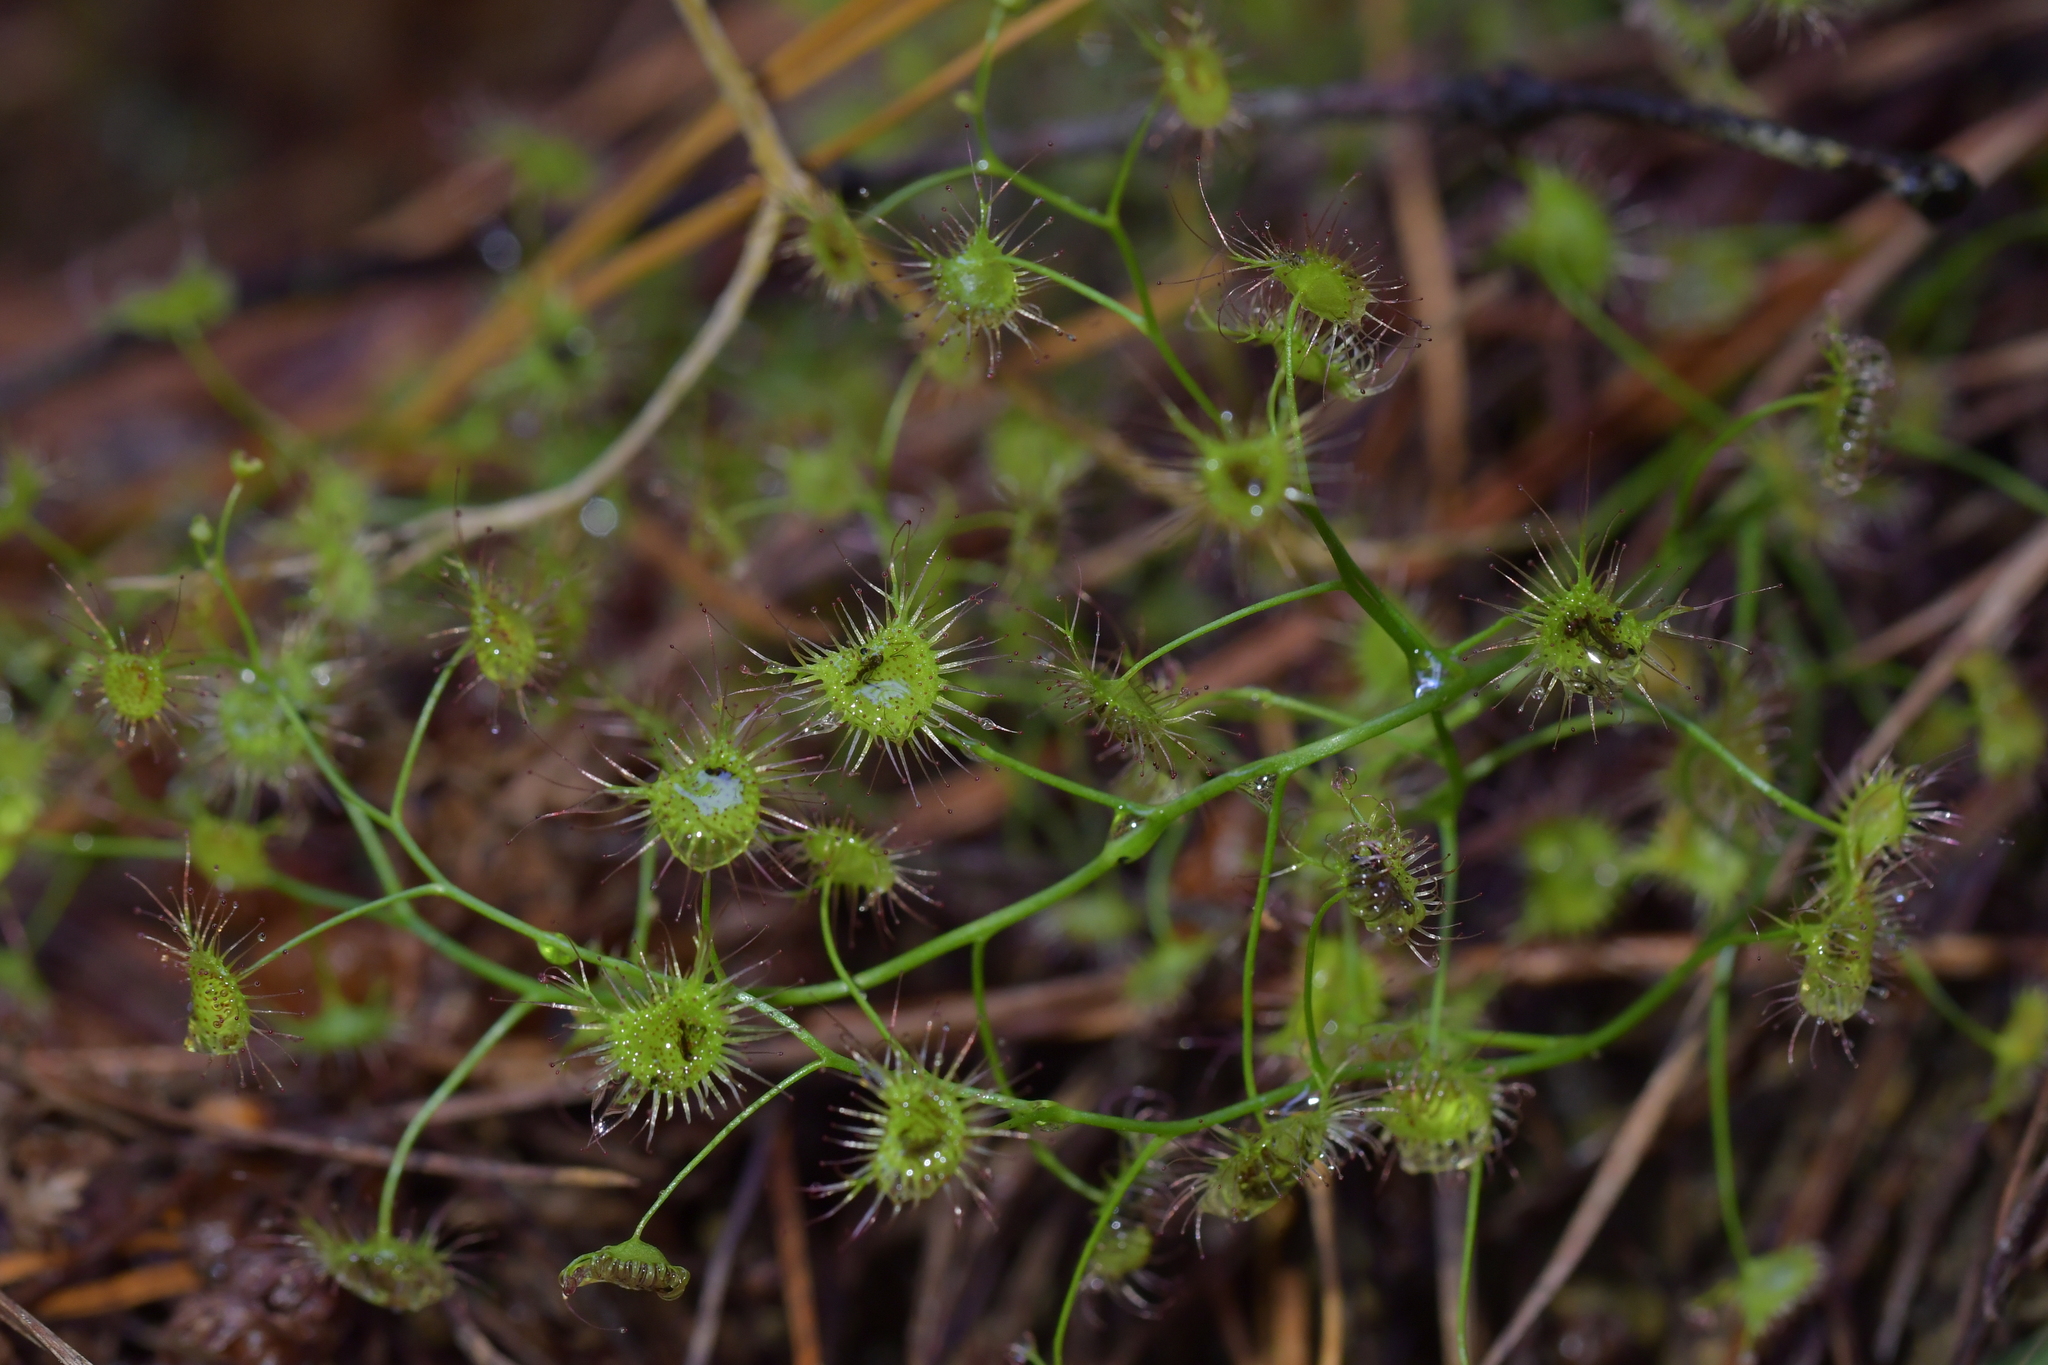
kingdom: Plantae
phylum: Tracheophyta
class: Magnoliopsida
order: Caryophyllales
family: Droseraceae
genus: Drosera
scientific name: Drosera peltata
